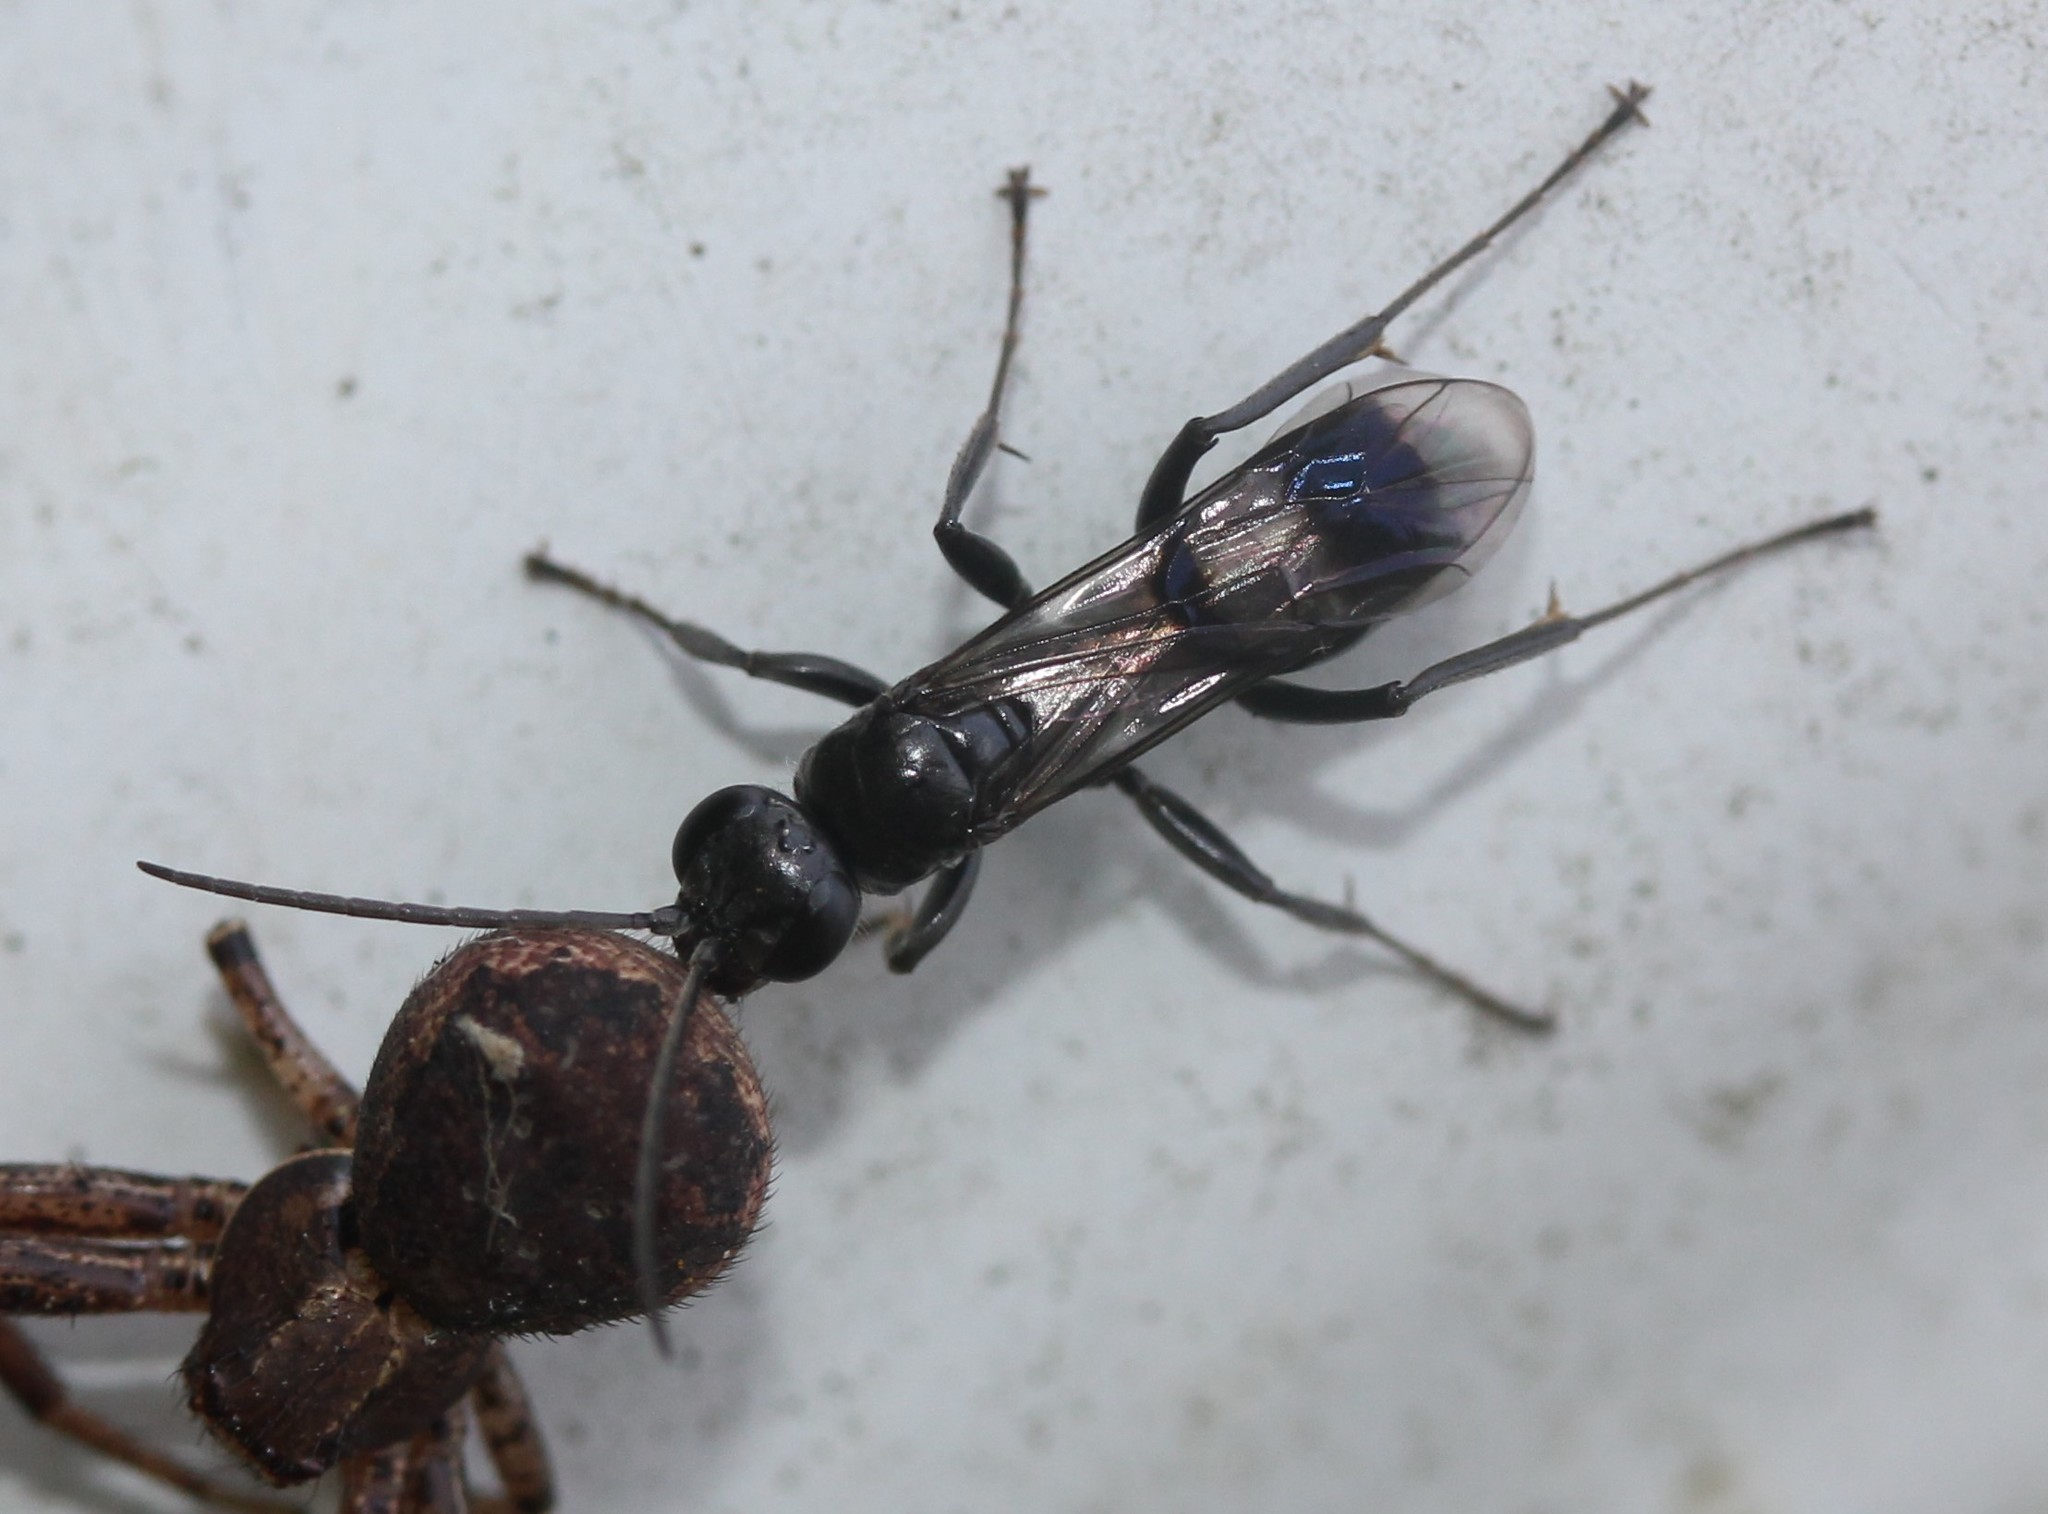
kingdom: Animalia
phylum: Arthropoda
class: Insecta
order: Hymenoptera
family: Pompilidae
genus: Dipogon
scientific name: Dipogon sayi
